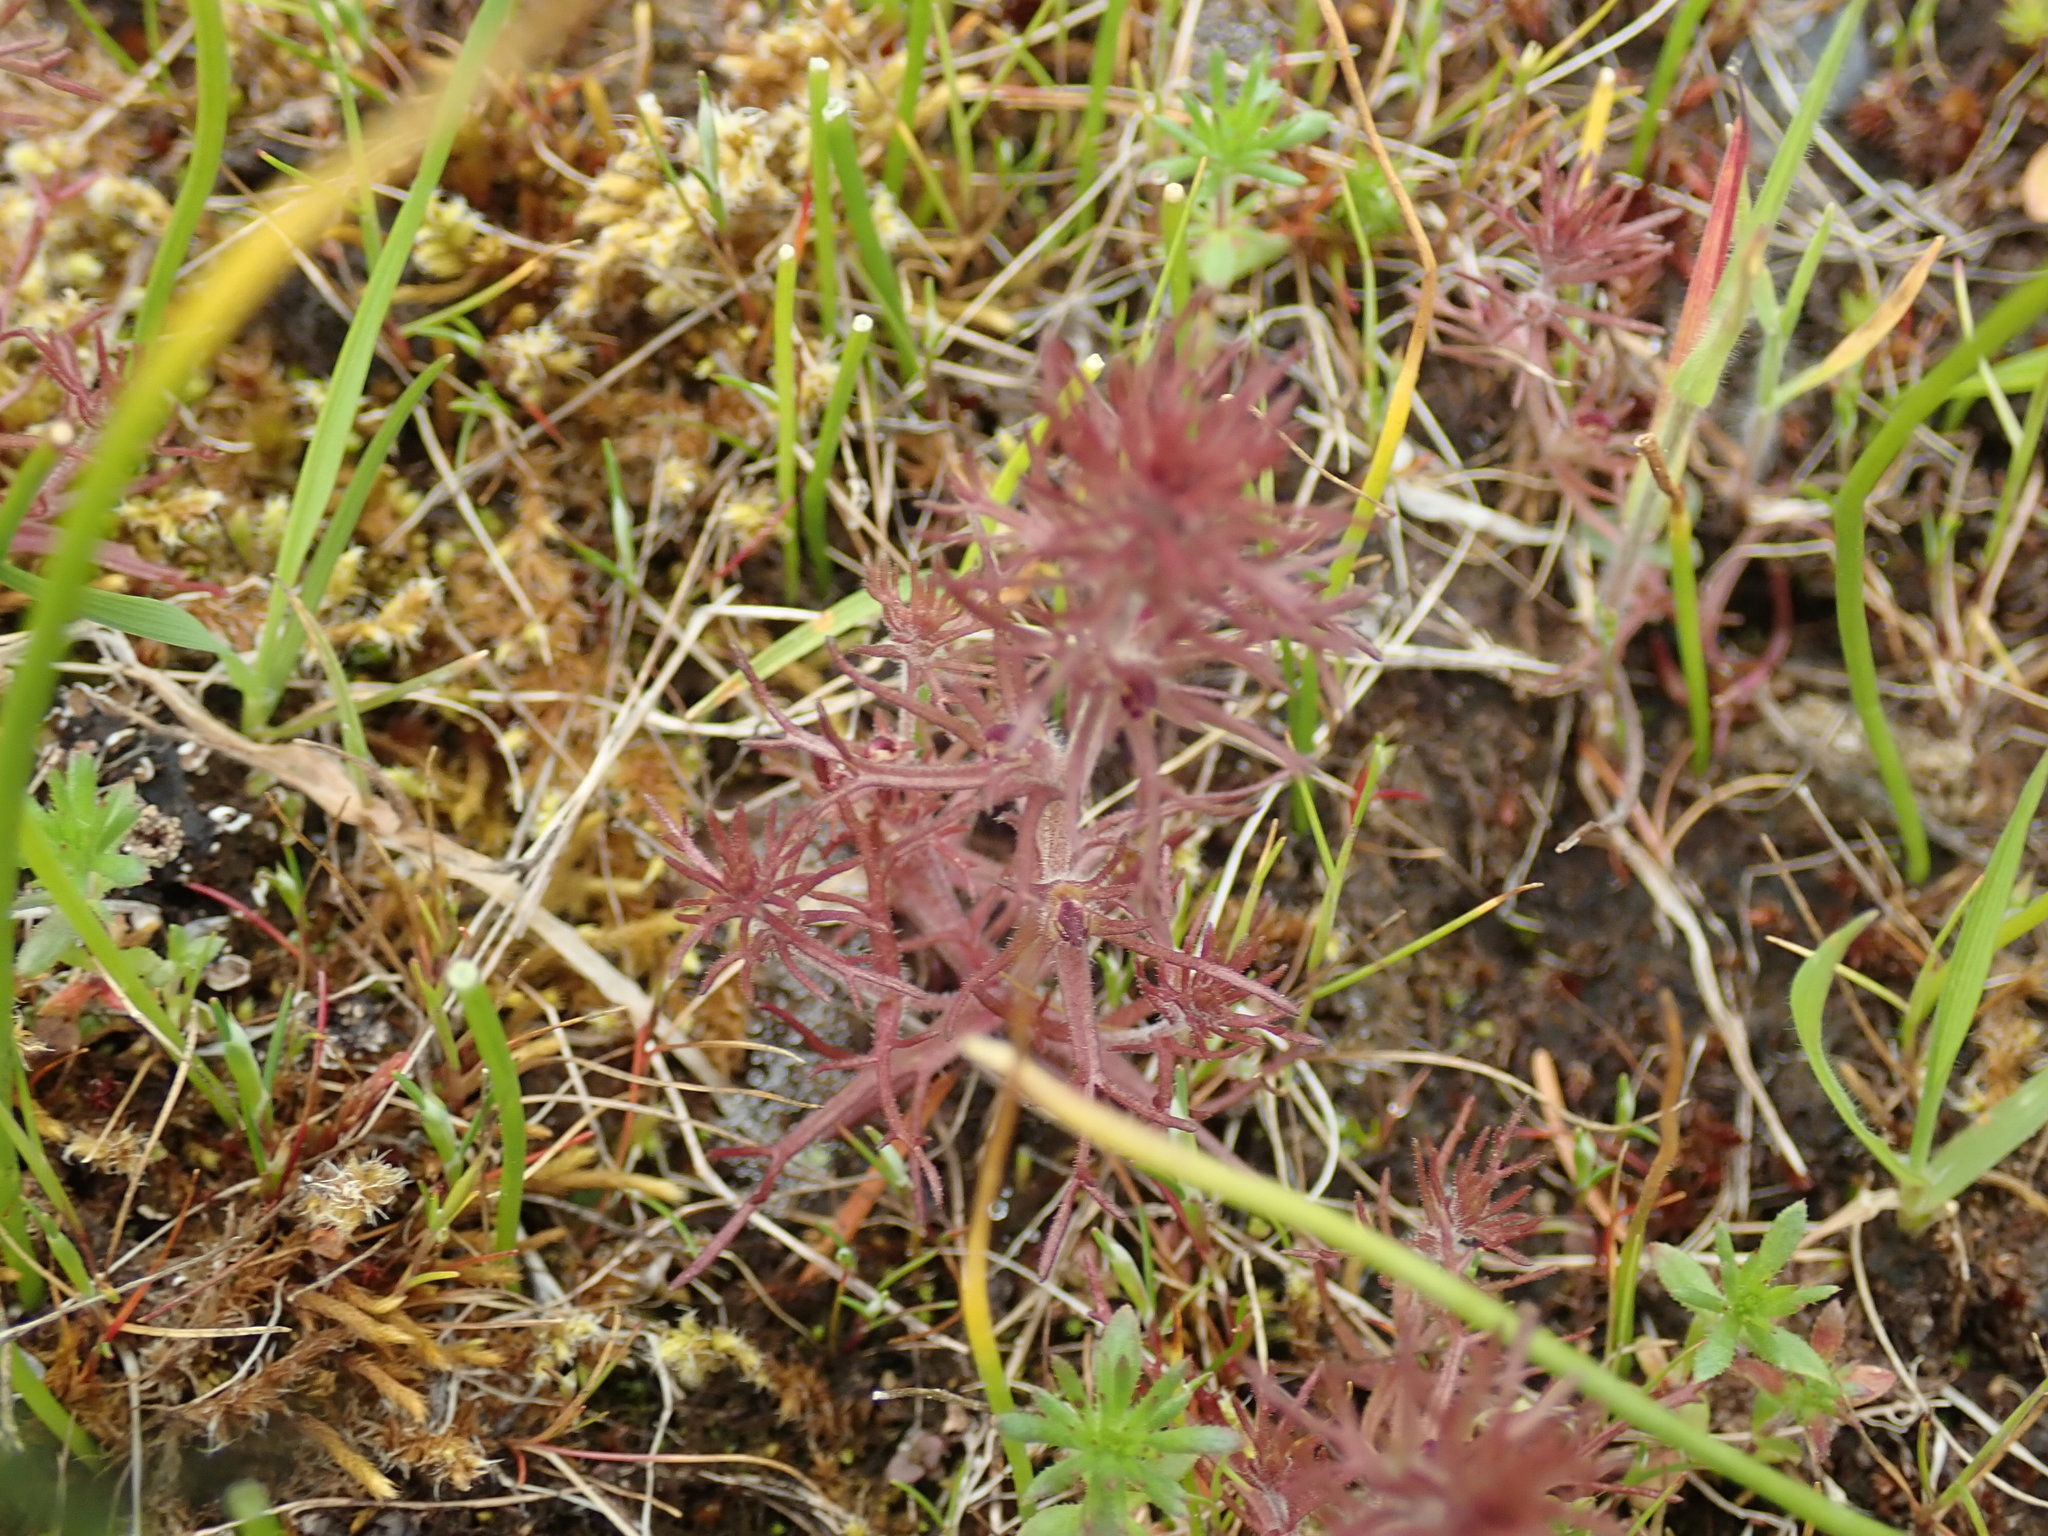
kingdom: Plantae
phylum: Tracheophyta
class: Magnoliopsida
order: Lamiales
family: Orobanchaceae
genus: Triphysaria
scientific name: Triphysaria pusilla
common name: Dwarf false owl-clover
